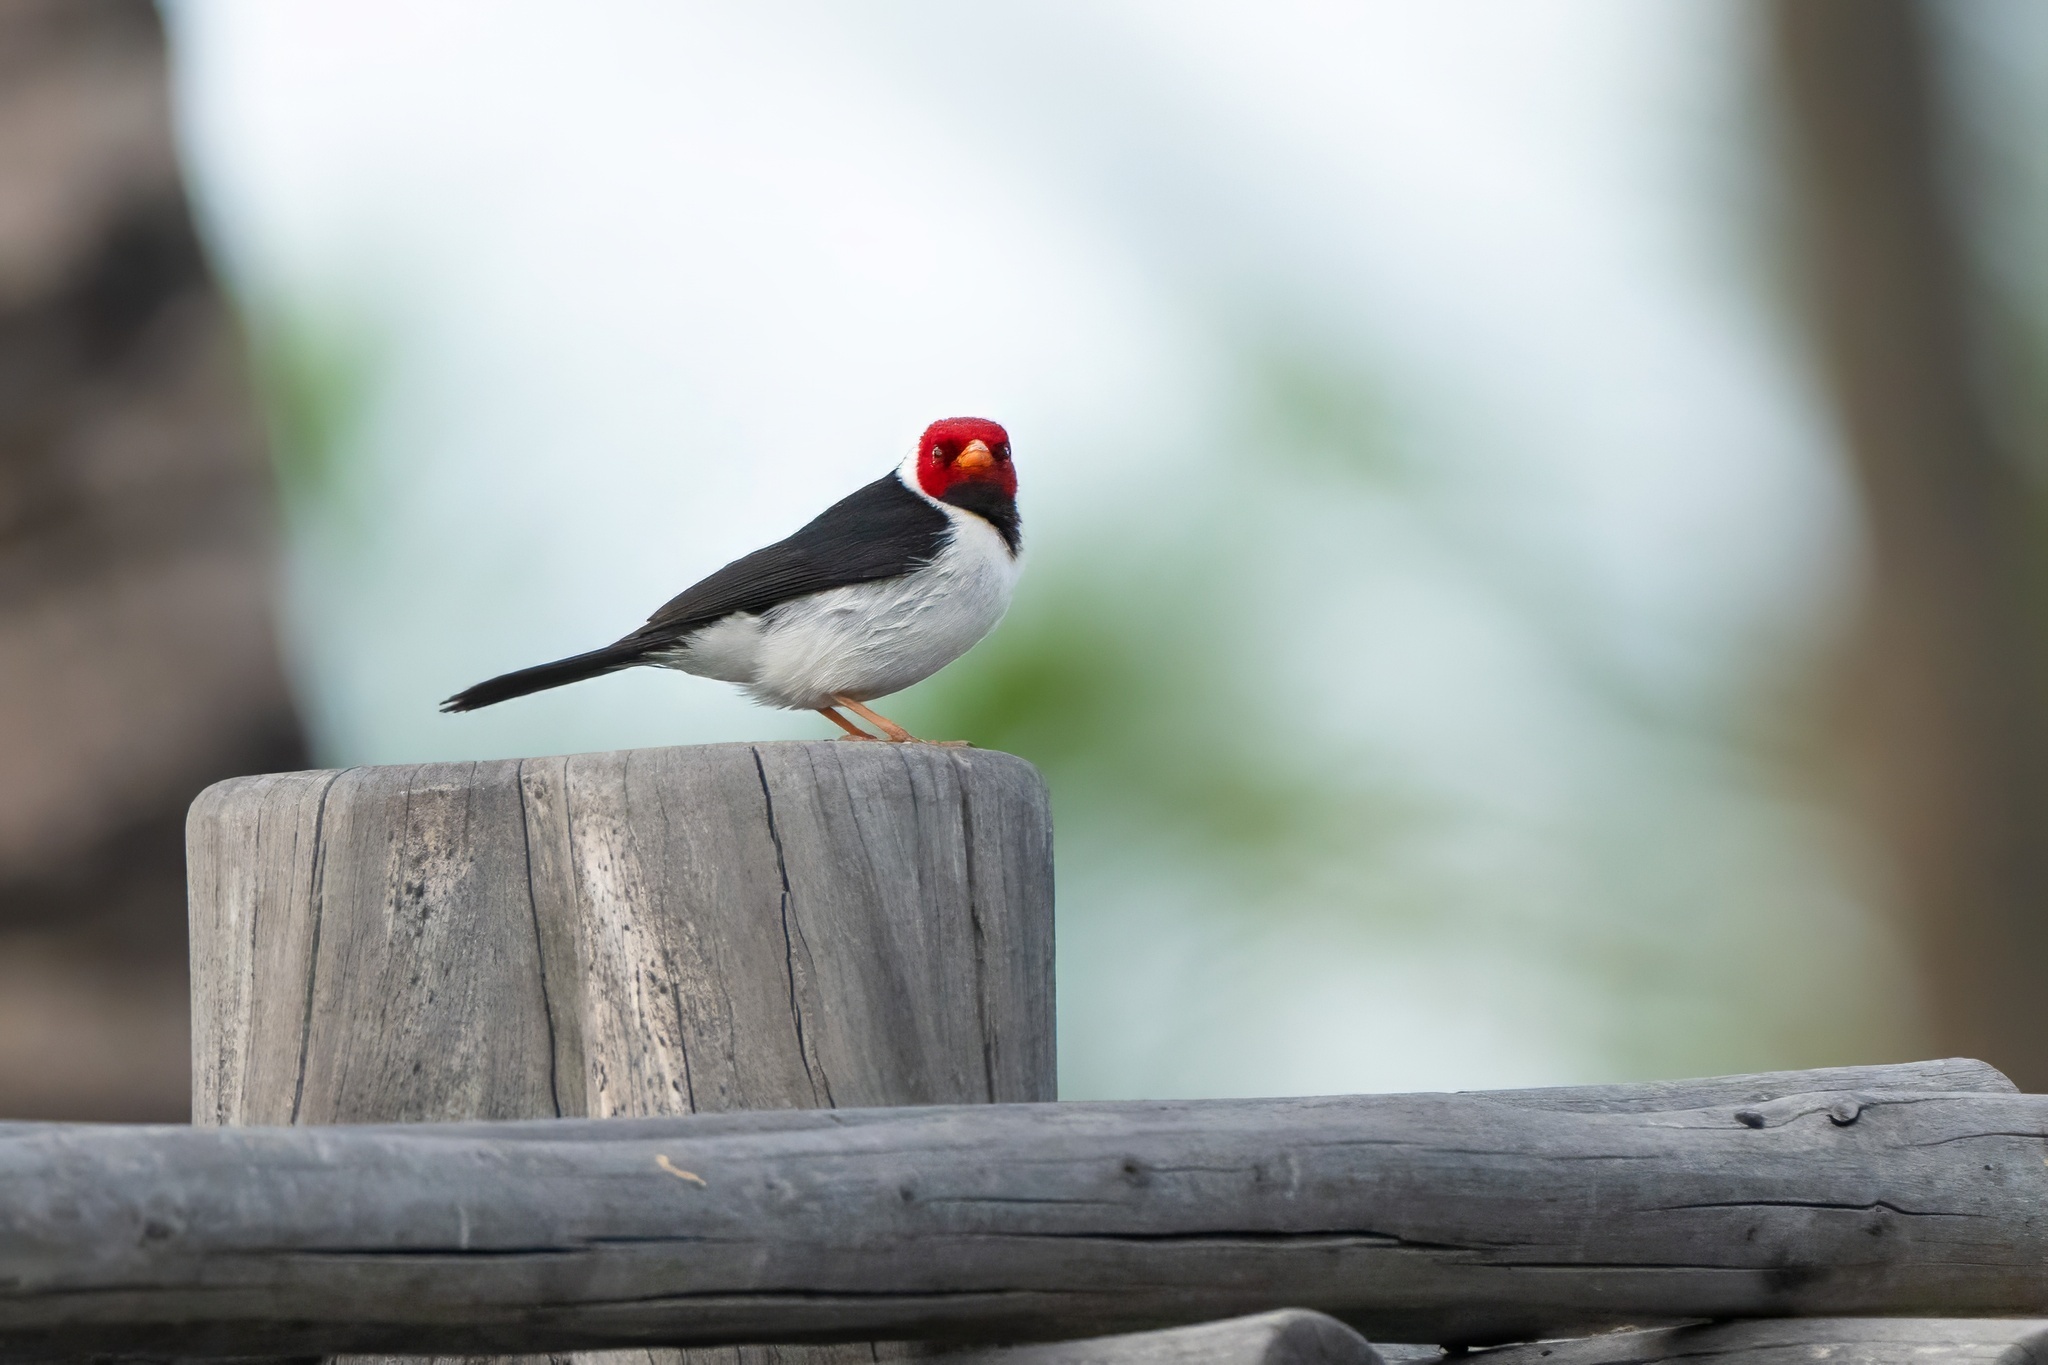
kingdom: Animalia
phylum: Chordata
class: Aves
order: Passeriformes
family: Thraupidae
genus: Paroaria
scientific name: Paroaria capitata
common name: Yellow-billed cardinal
